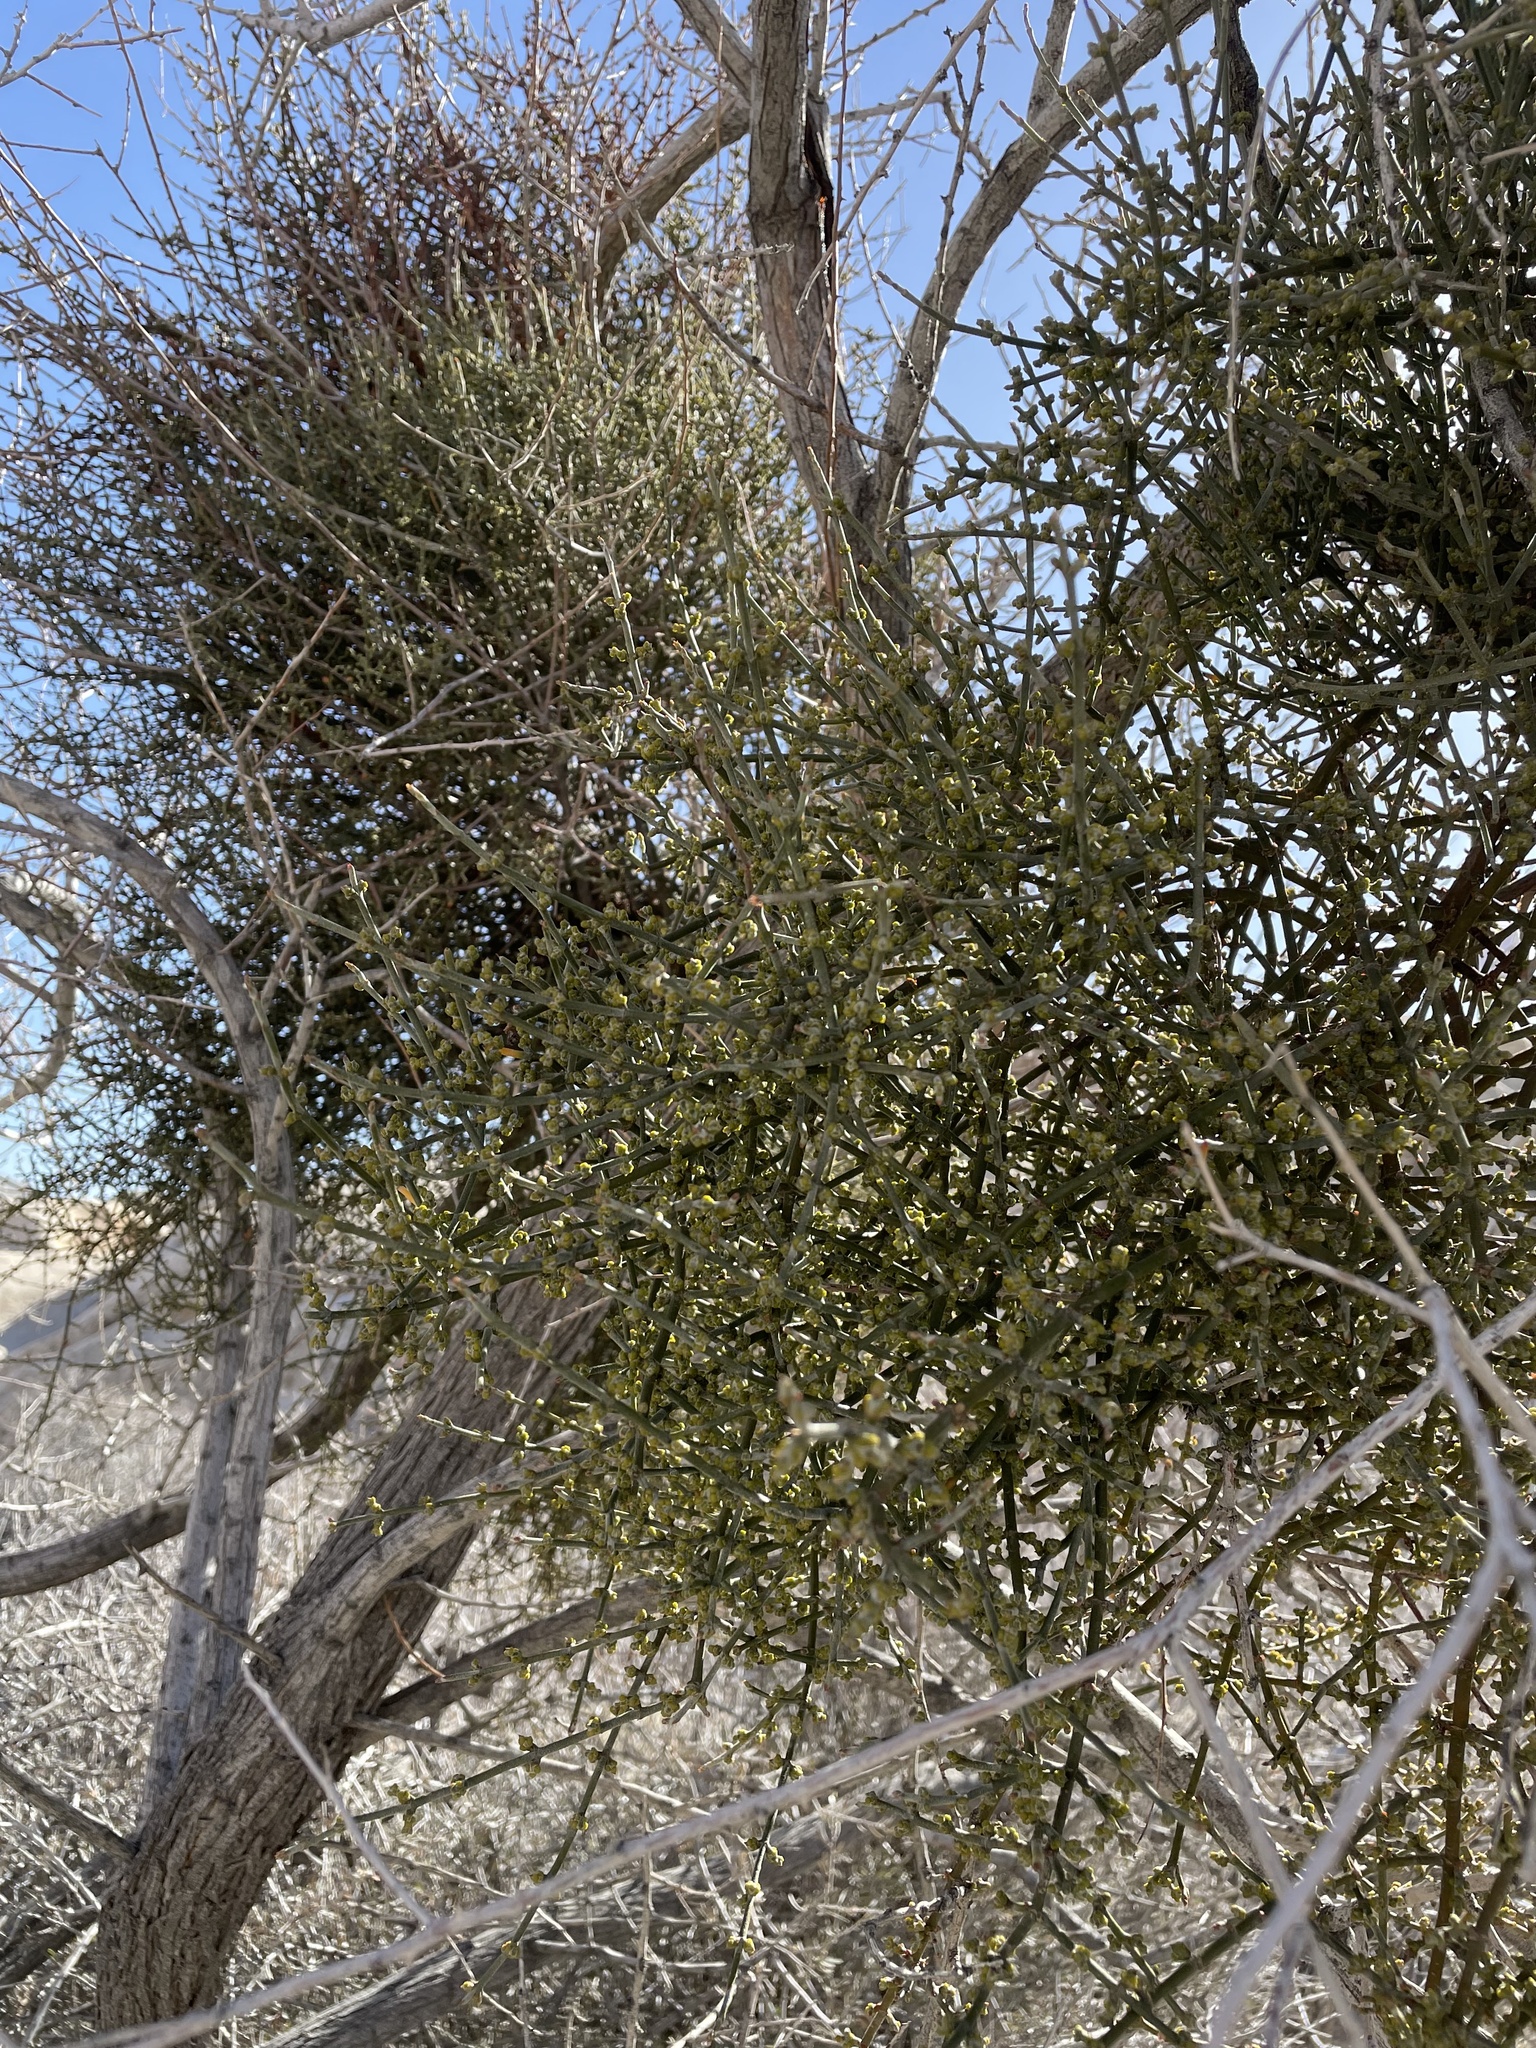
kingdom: Plantae
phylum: Tracheophyta
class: Magnoliopsida
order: Santalales
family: Viscaceae
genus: Phoradendron
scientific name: Phoradendron californicum
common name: Acacia mistletoe
